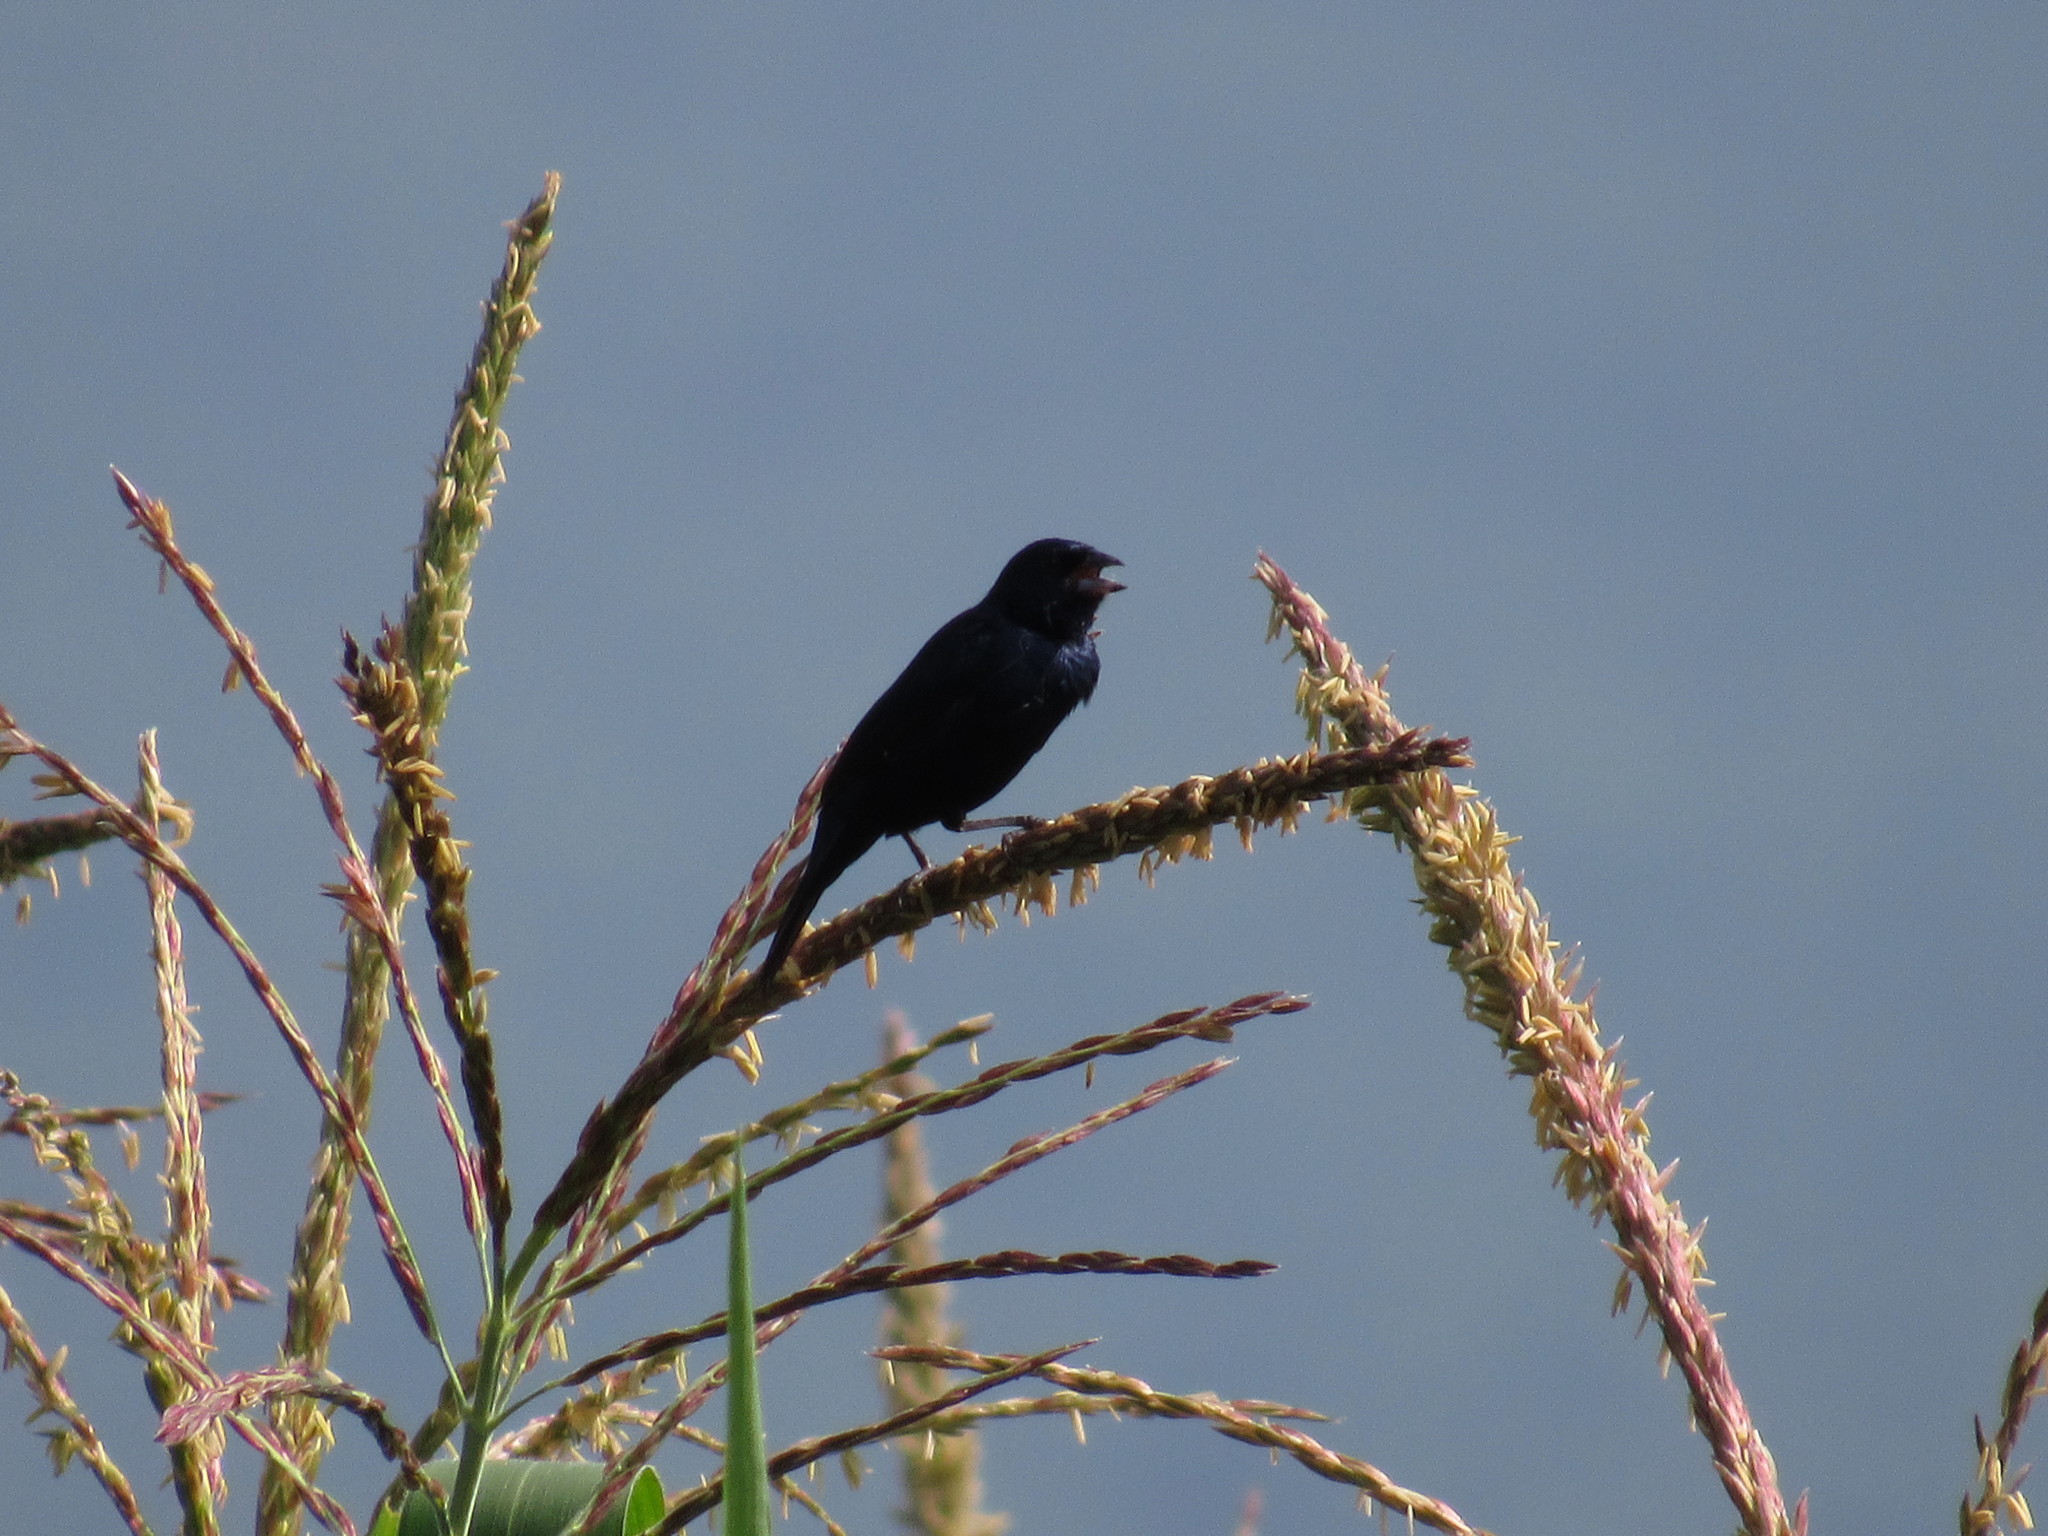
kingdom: Animalia
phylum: Chordata
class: Aves
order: Passeriformes
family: Thraupidae
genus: Volatinia
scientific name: Volatinia jacarina
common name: Blue-black grassquit
